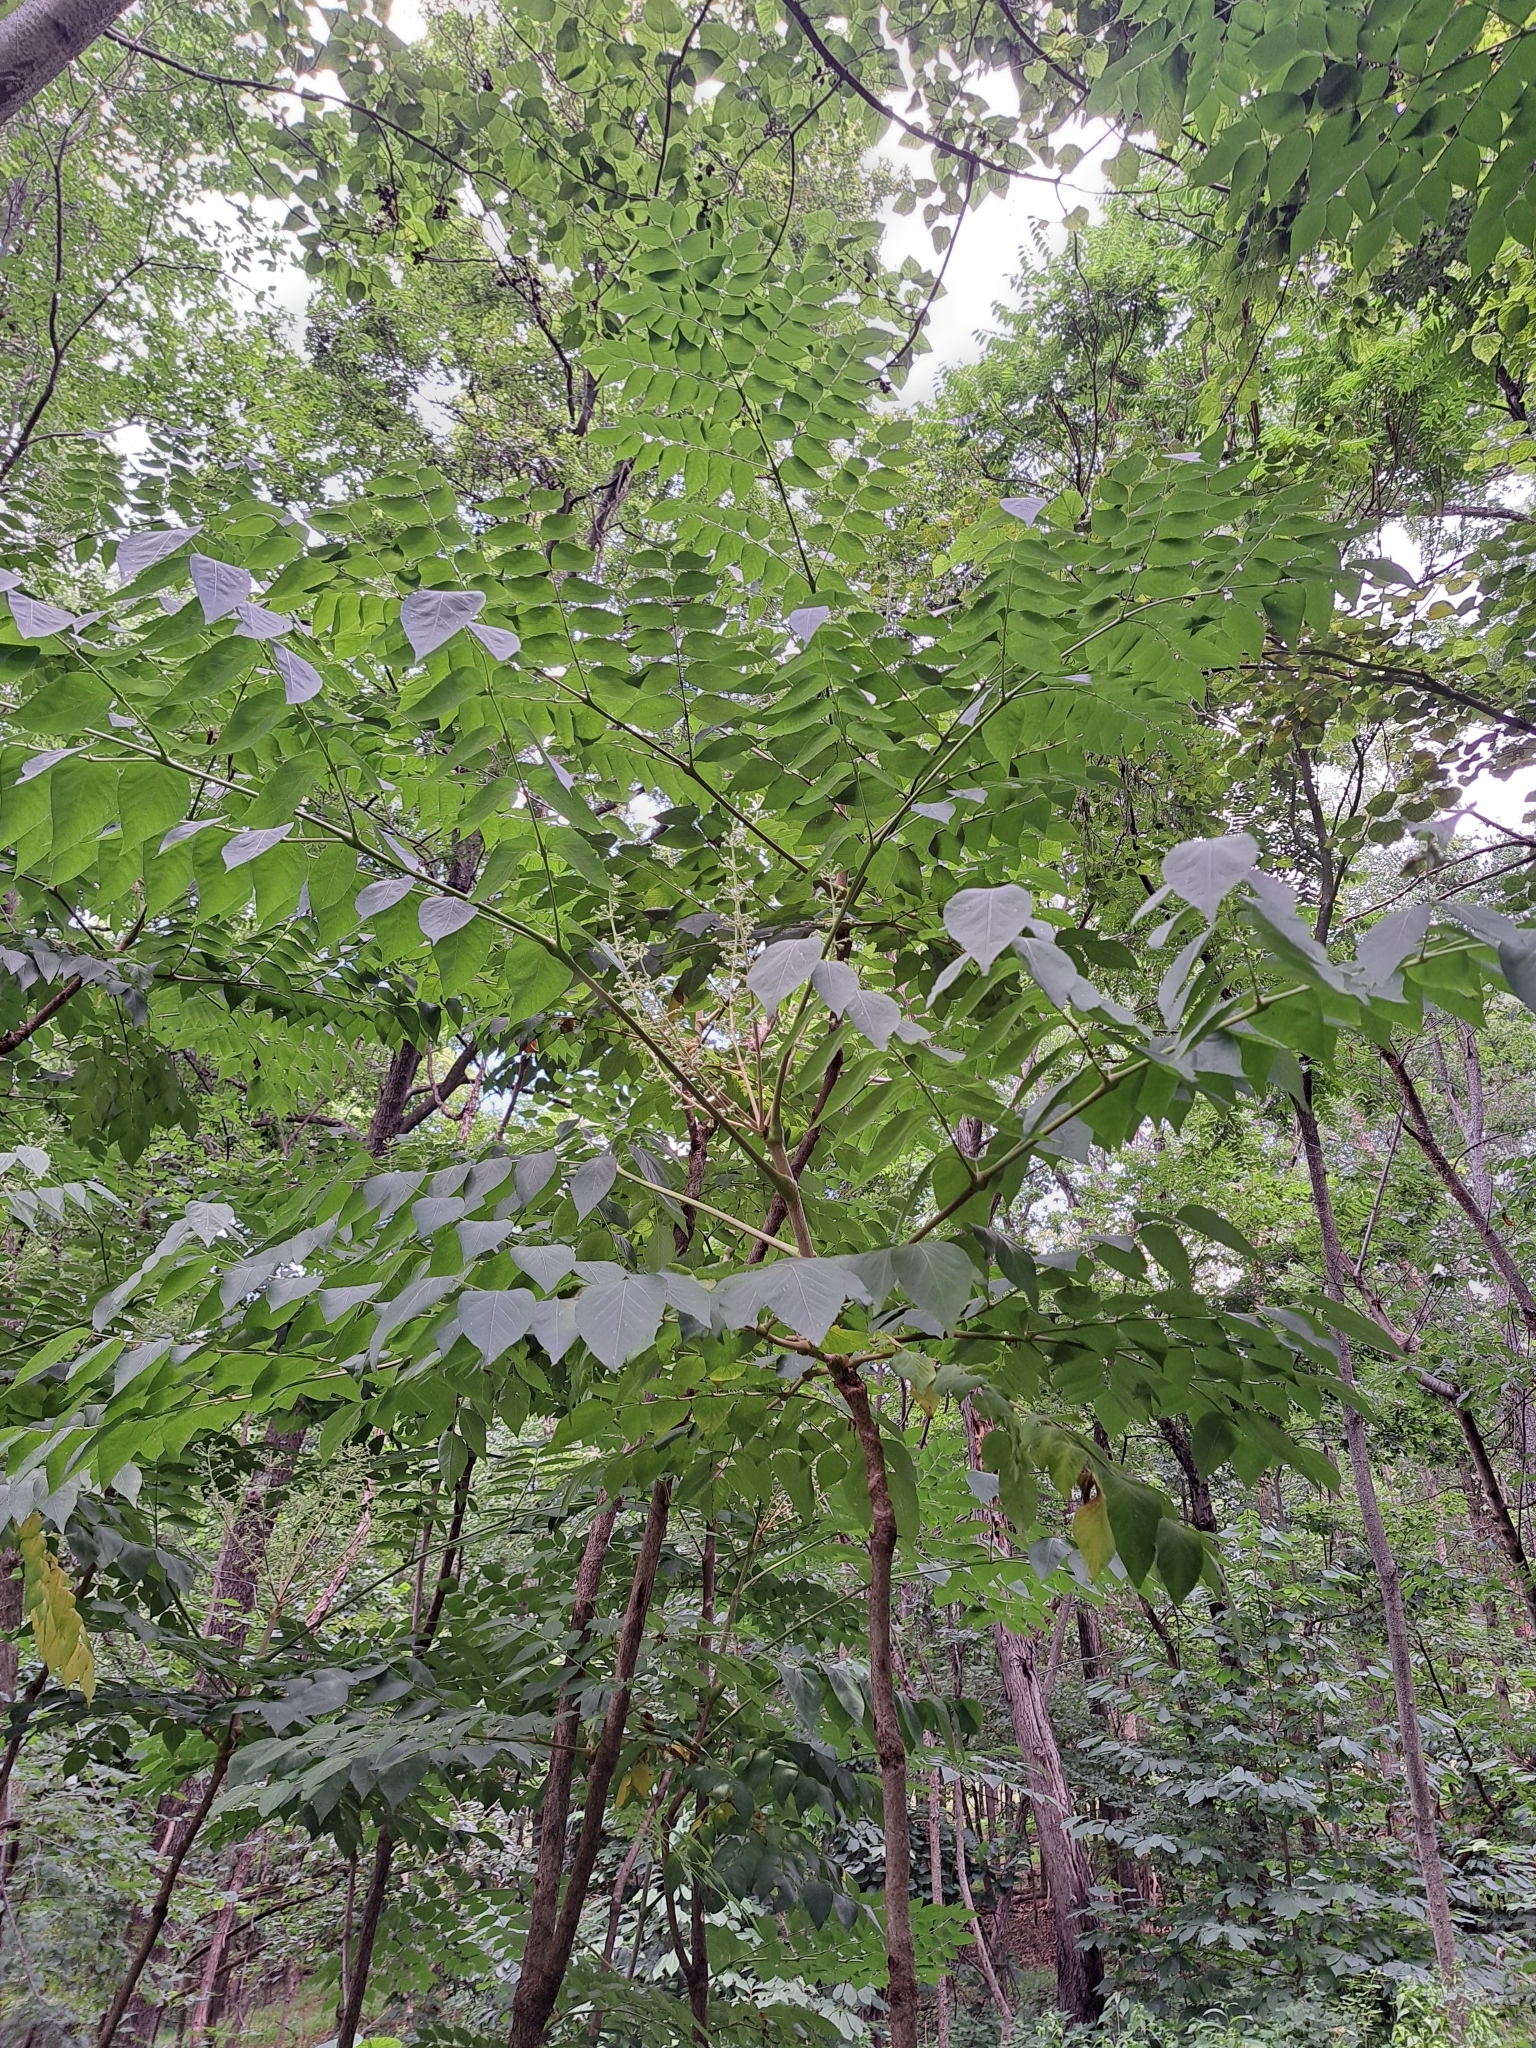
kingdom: Plantae
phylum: Tracheophyta
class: Magnoliopsida
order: Apiales
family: Araliaceae
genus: Aralia
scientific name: Aralia spinosa
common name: Hercules'-club
